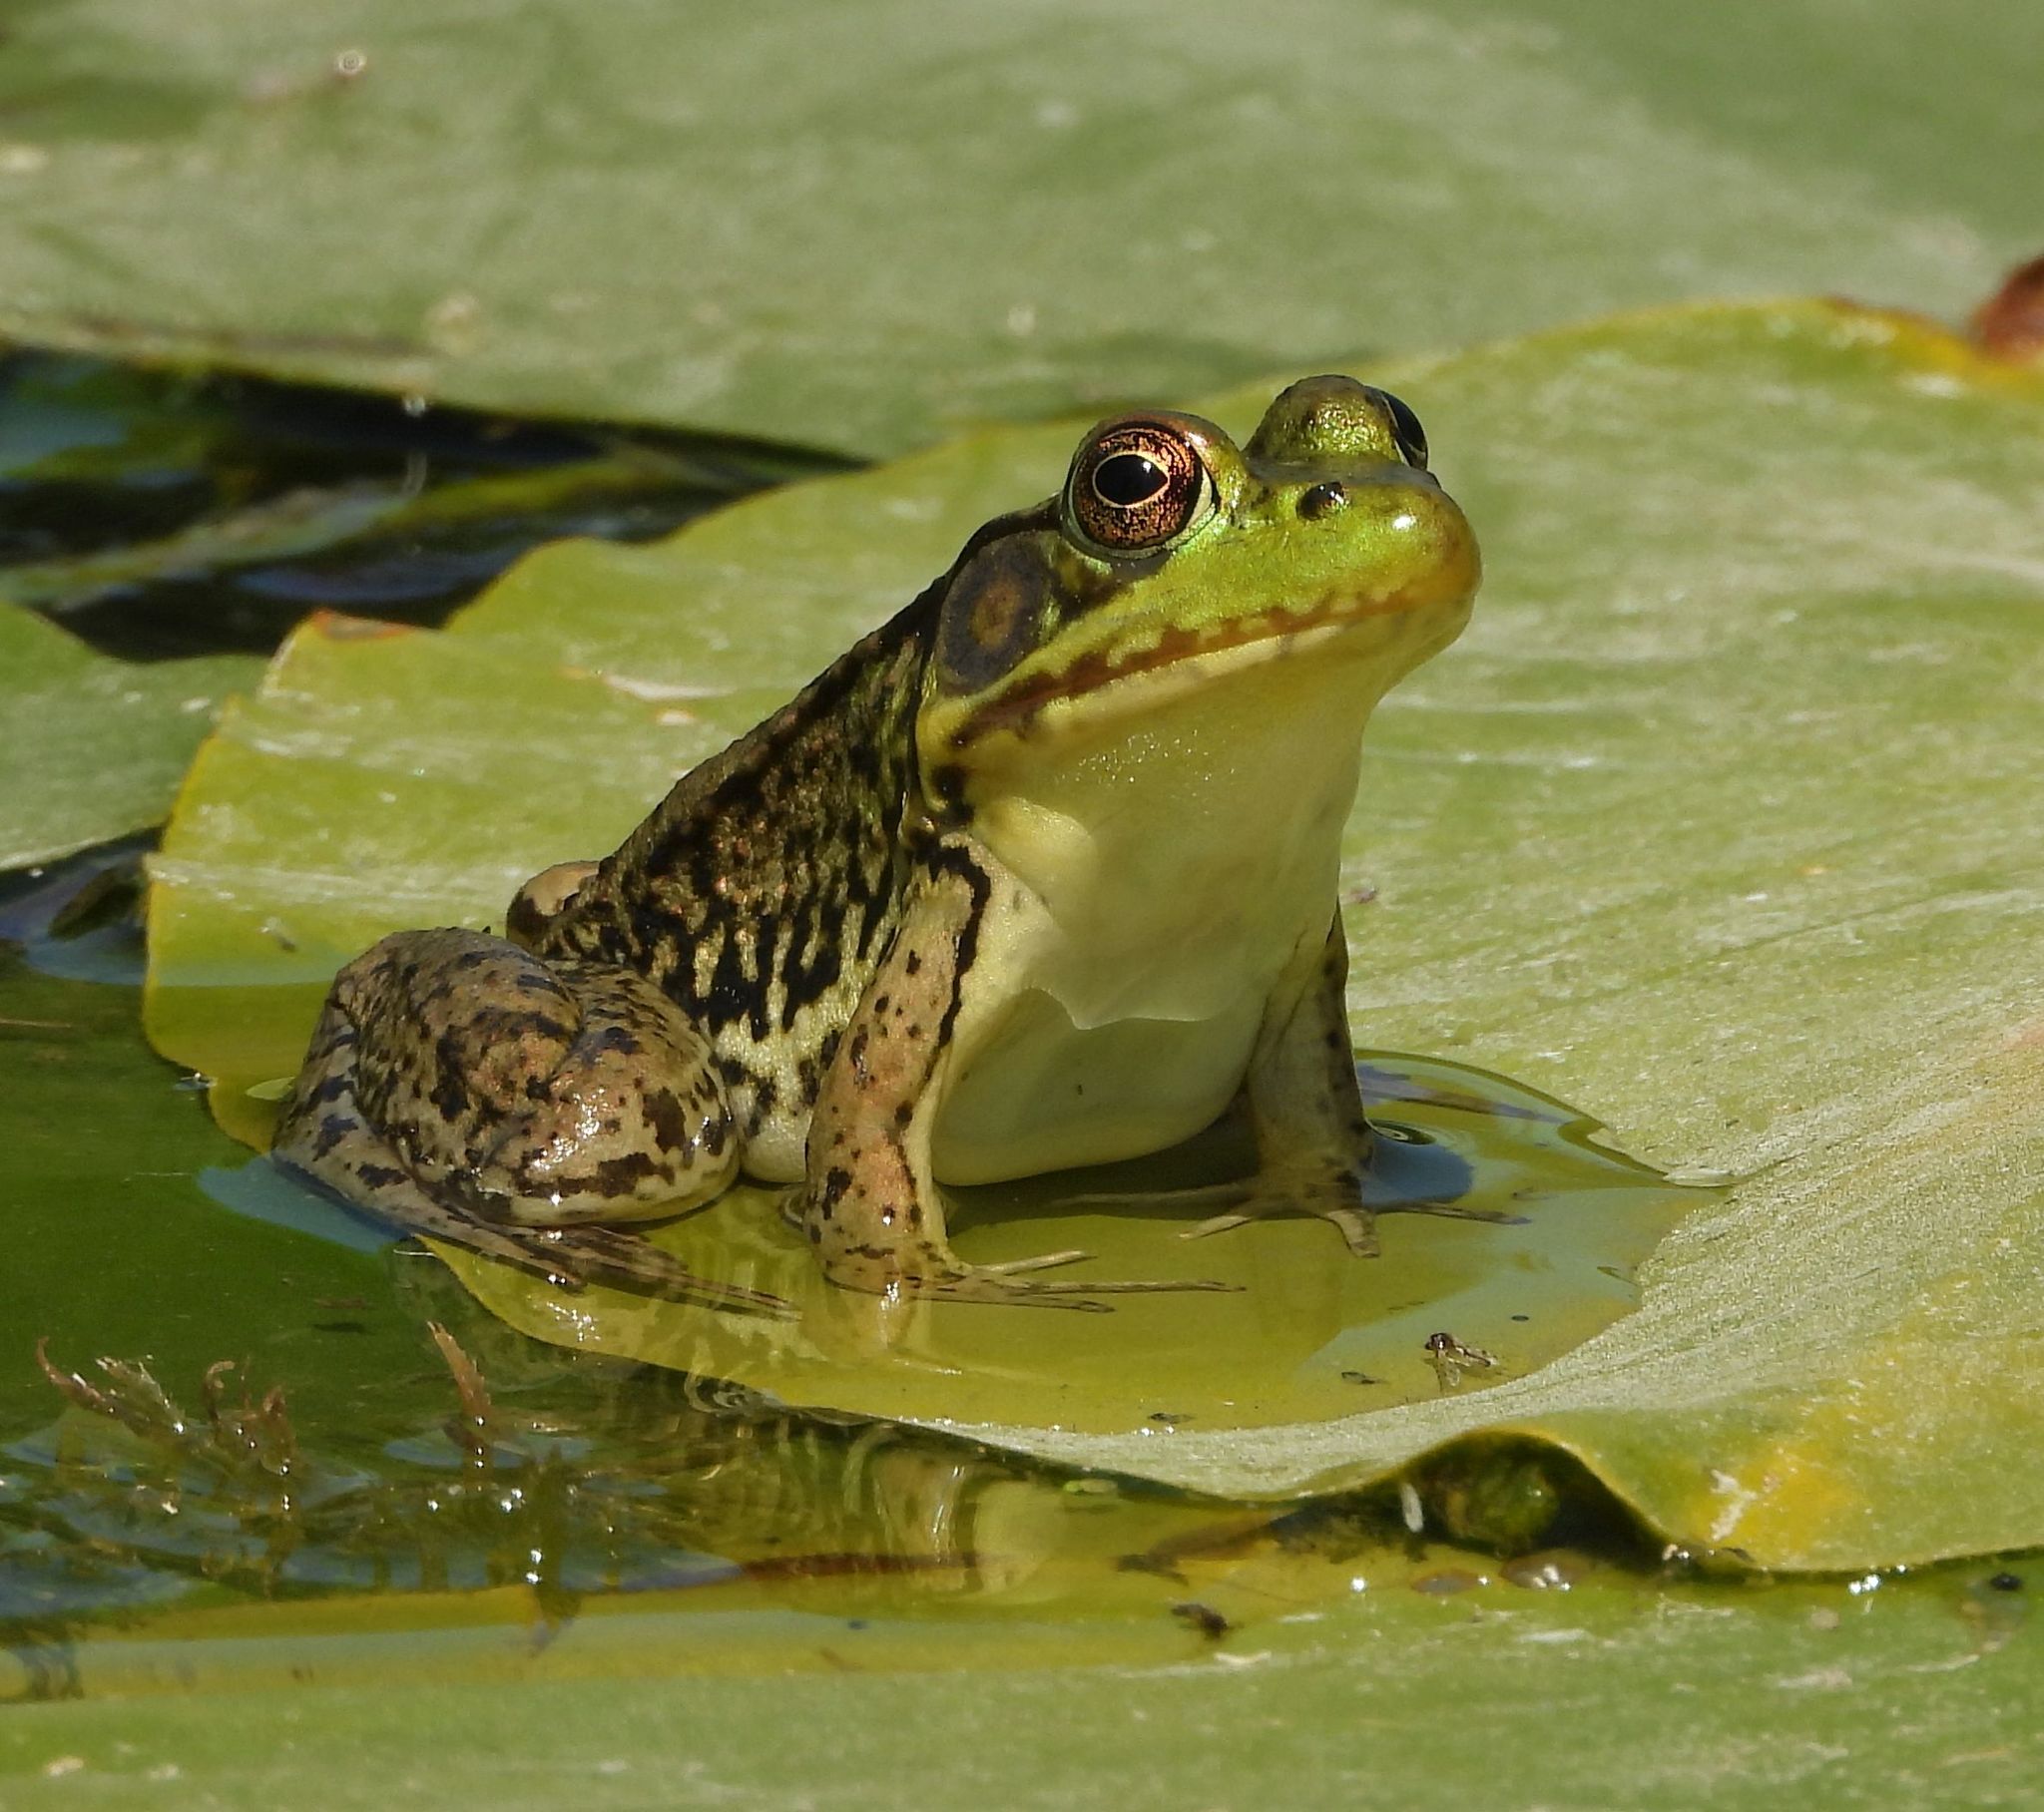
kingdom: Animalia
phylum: Chordata
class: Amphibia
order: Anura
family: Ranidae
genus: Lithobates
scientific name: Lithobates clamitans
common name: Green frog
